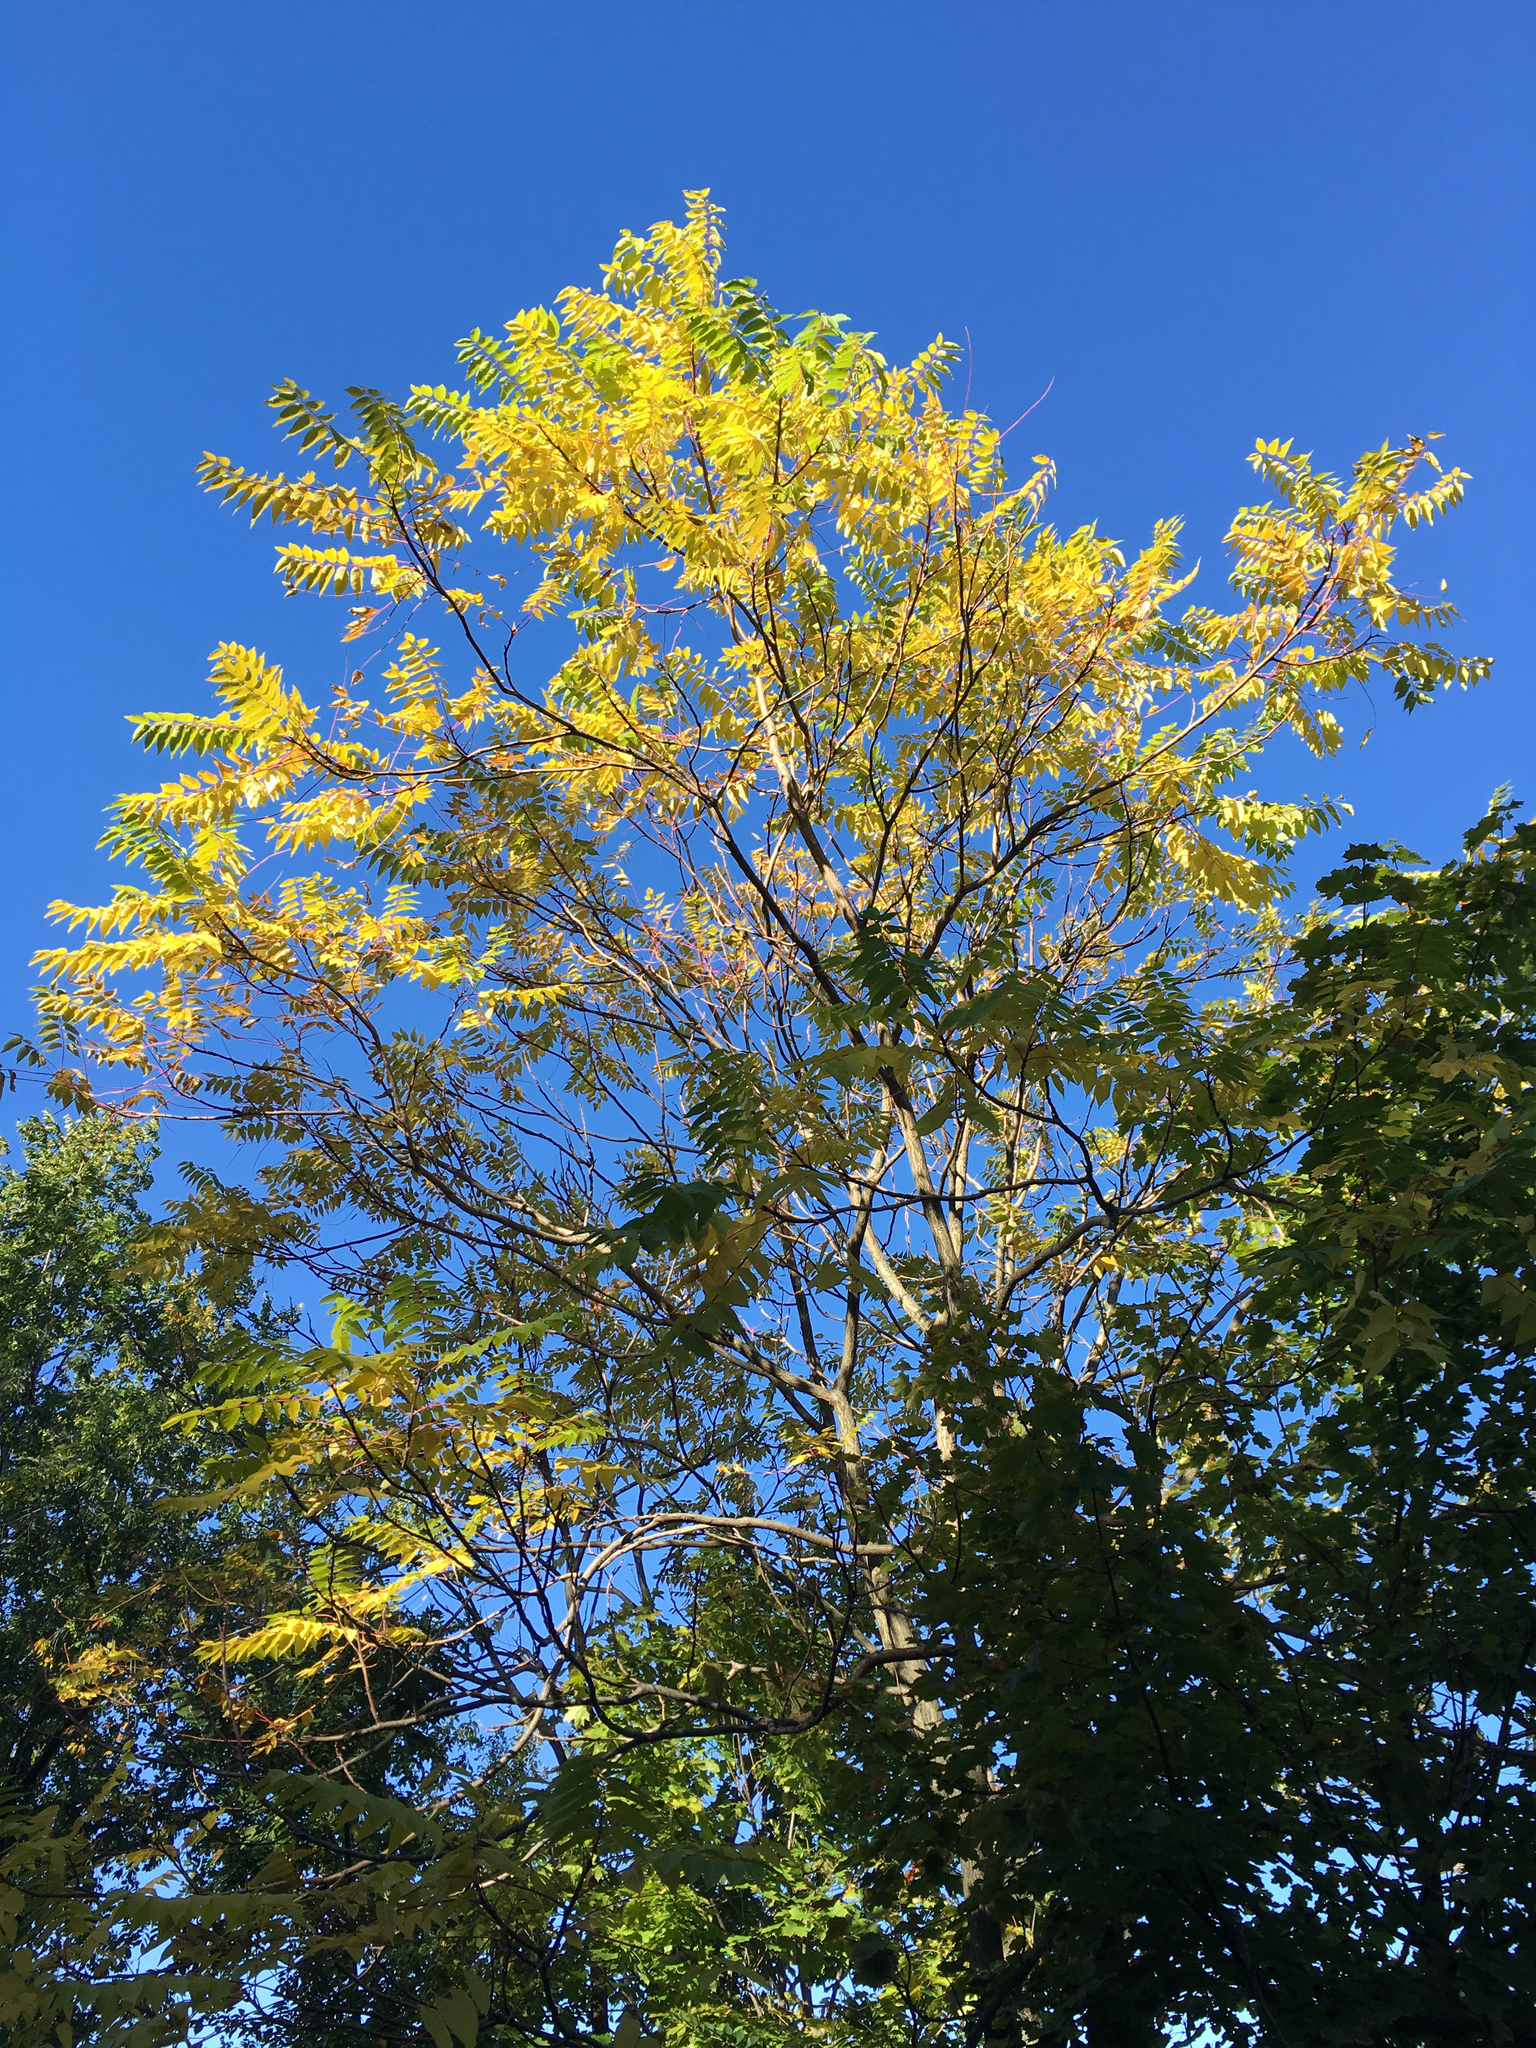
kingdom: Plantae
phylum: Tracheophyta
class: Magnoliopsida
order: Sapindales
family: Simaroubaceae
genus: Ailanthus
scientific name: Ailanthus altissima
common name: Tree-of-heaven
